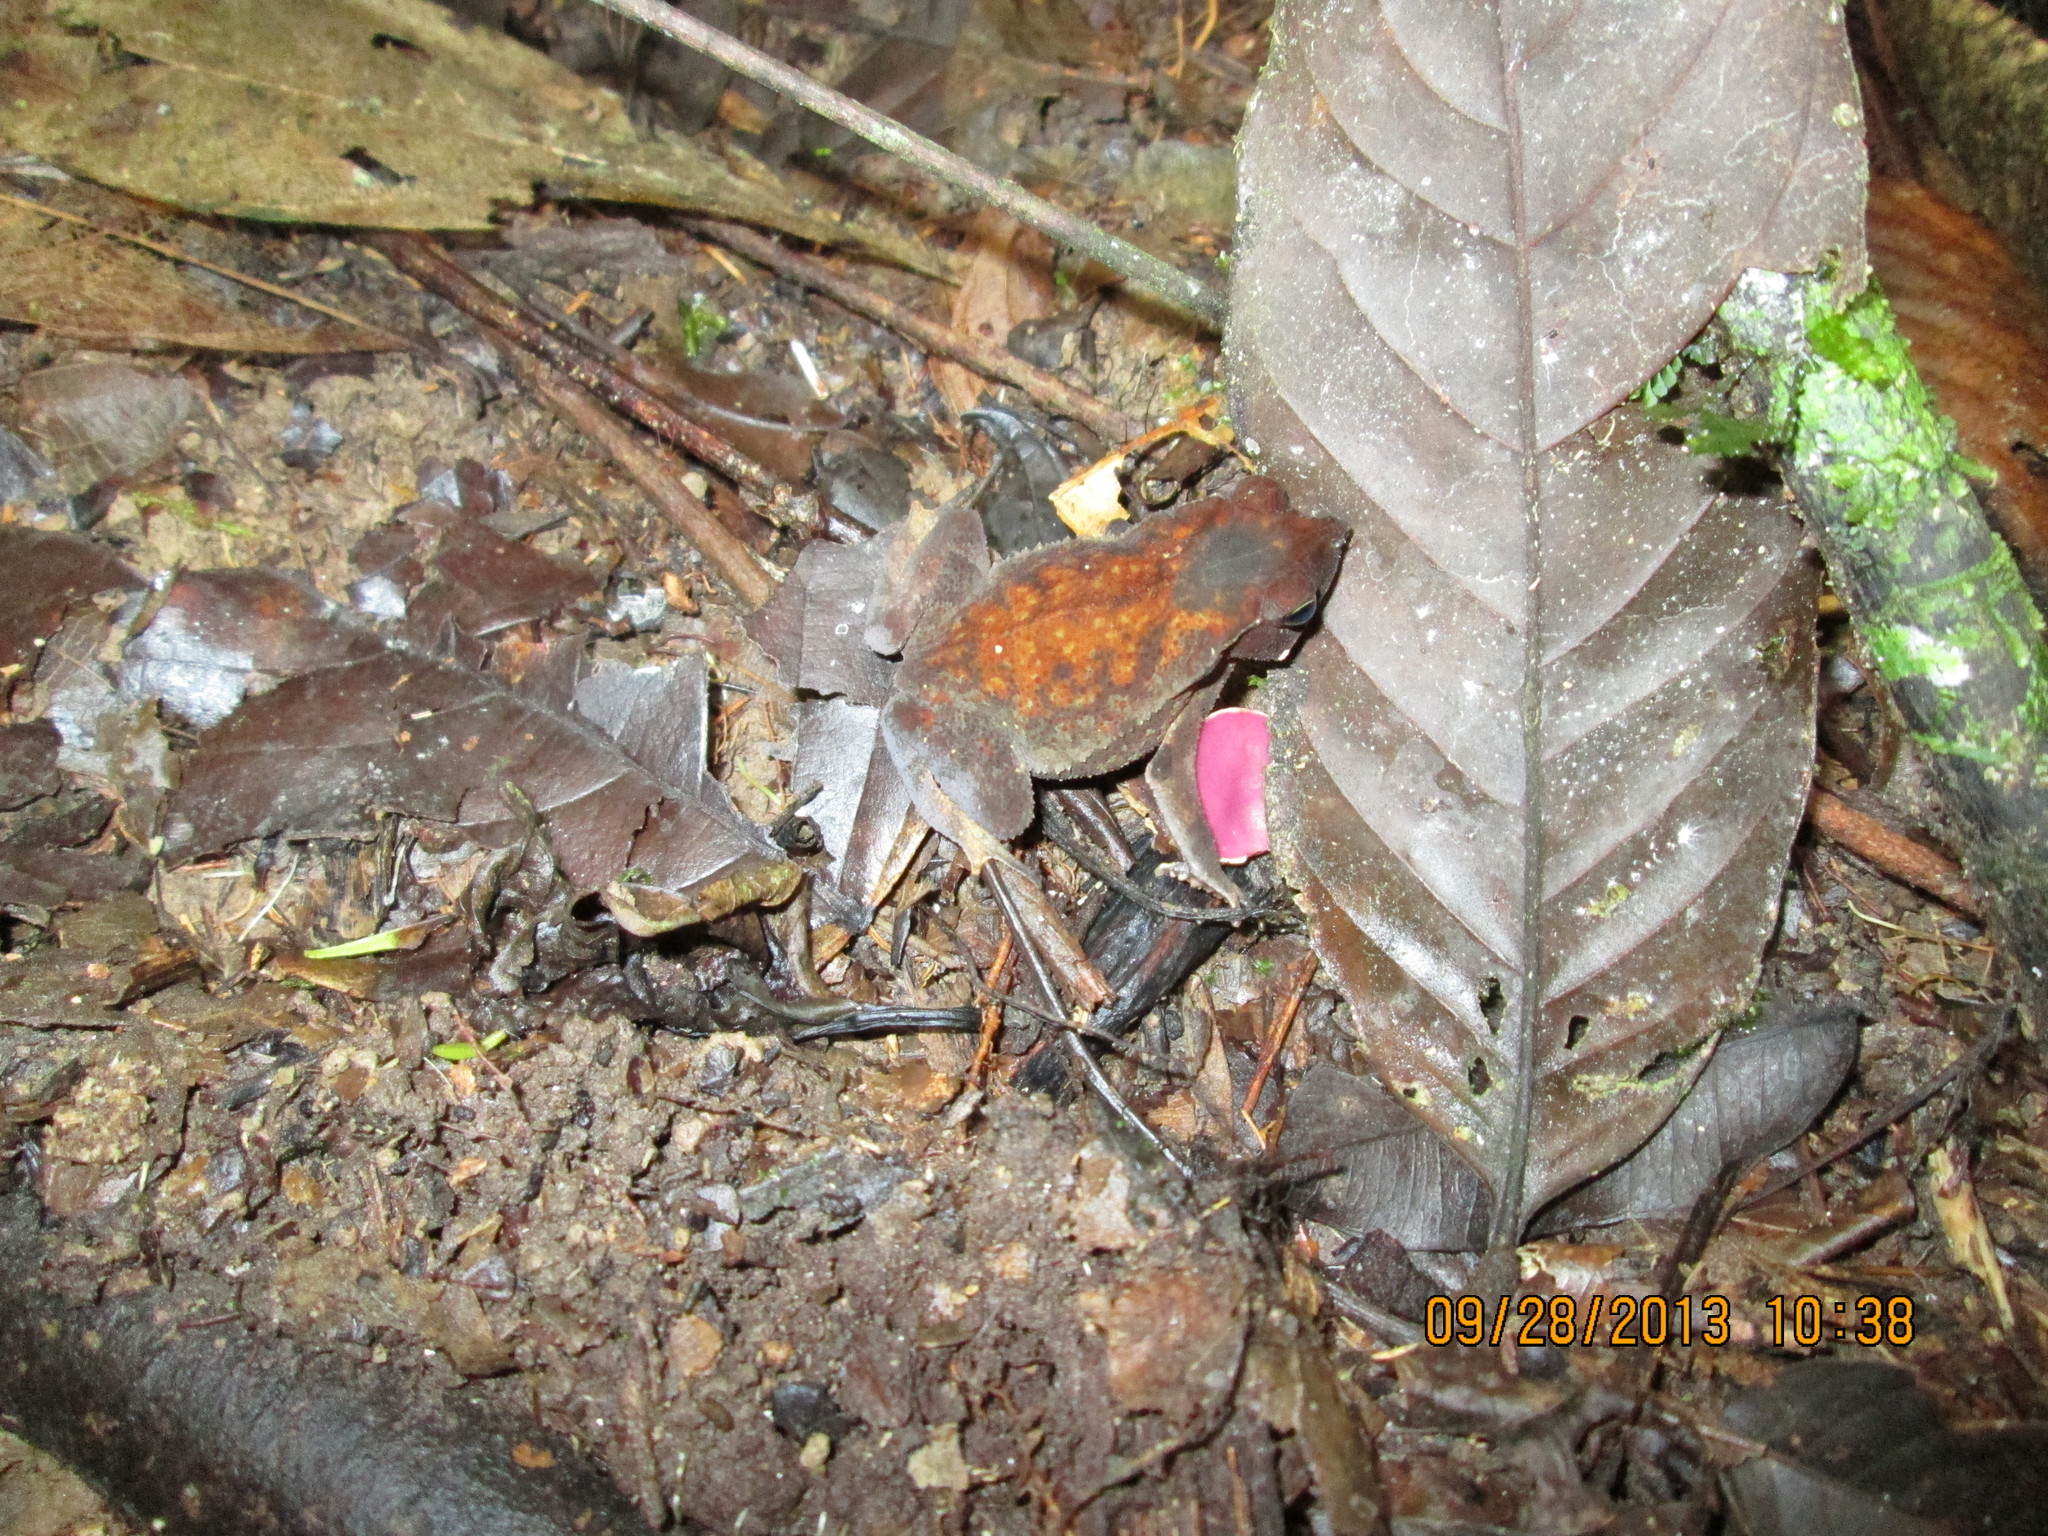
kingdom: Animalia
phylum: Chordata
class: Amphibia
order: Anura
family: Bufonidae
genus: Rhinella
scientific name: Rhinella margaritifera
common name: Mitred toad
